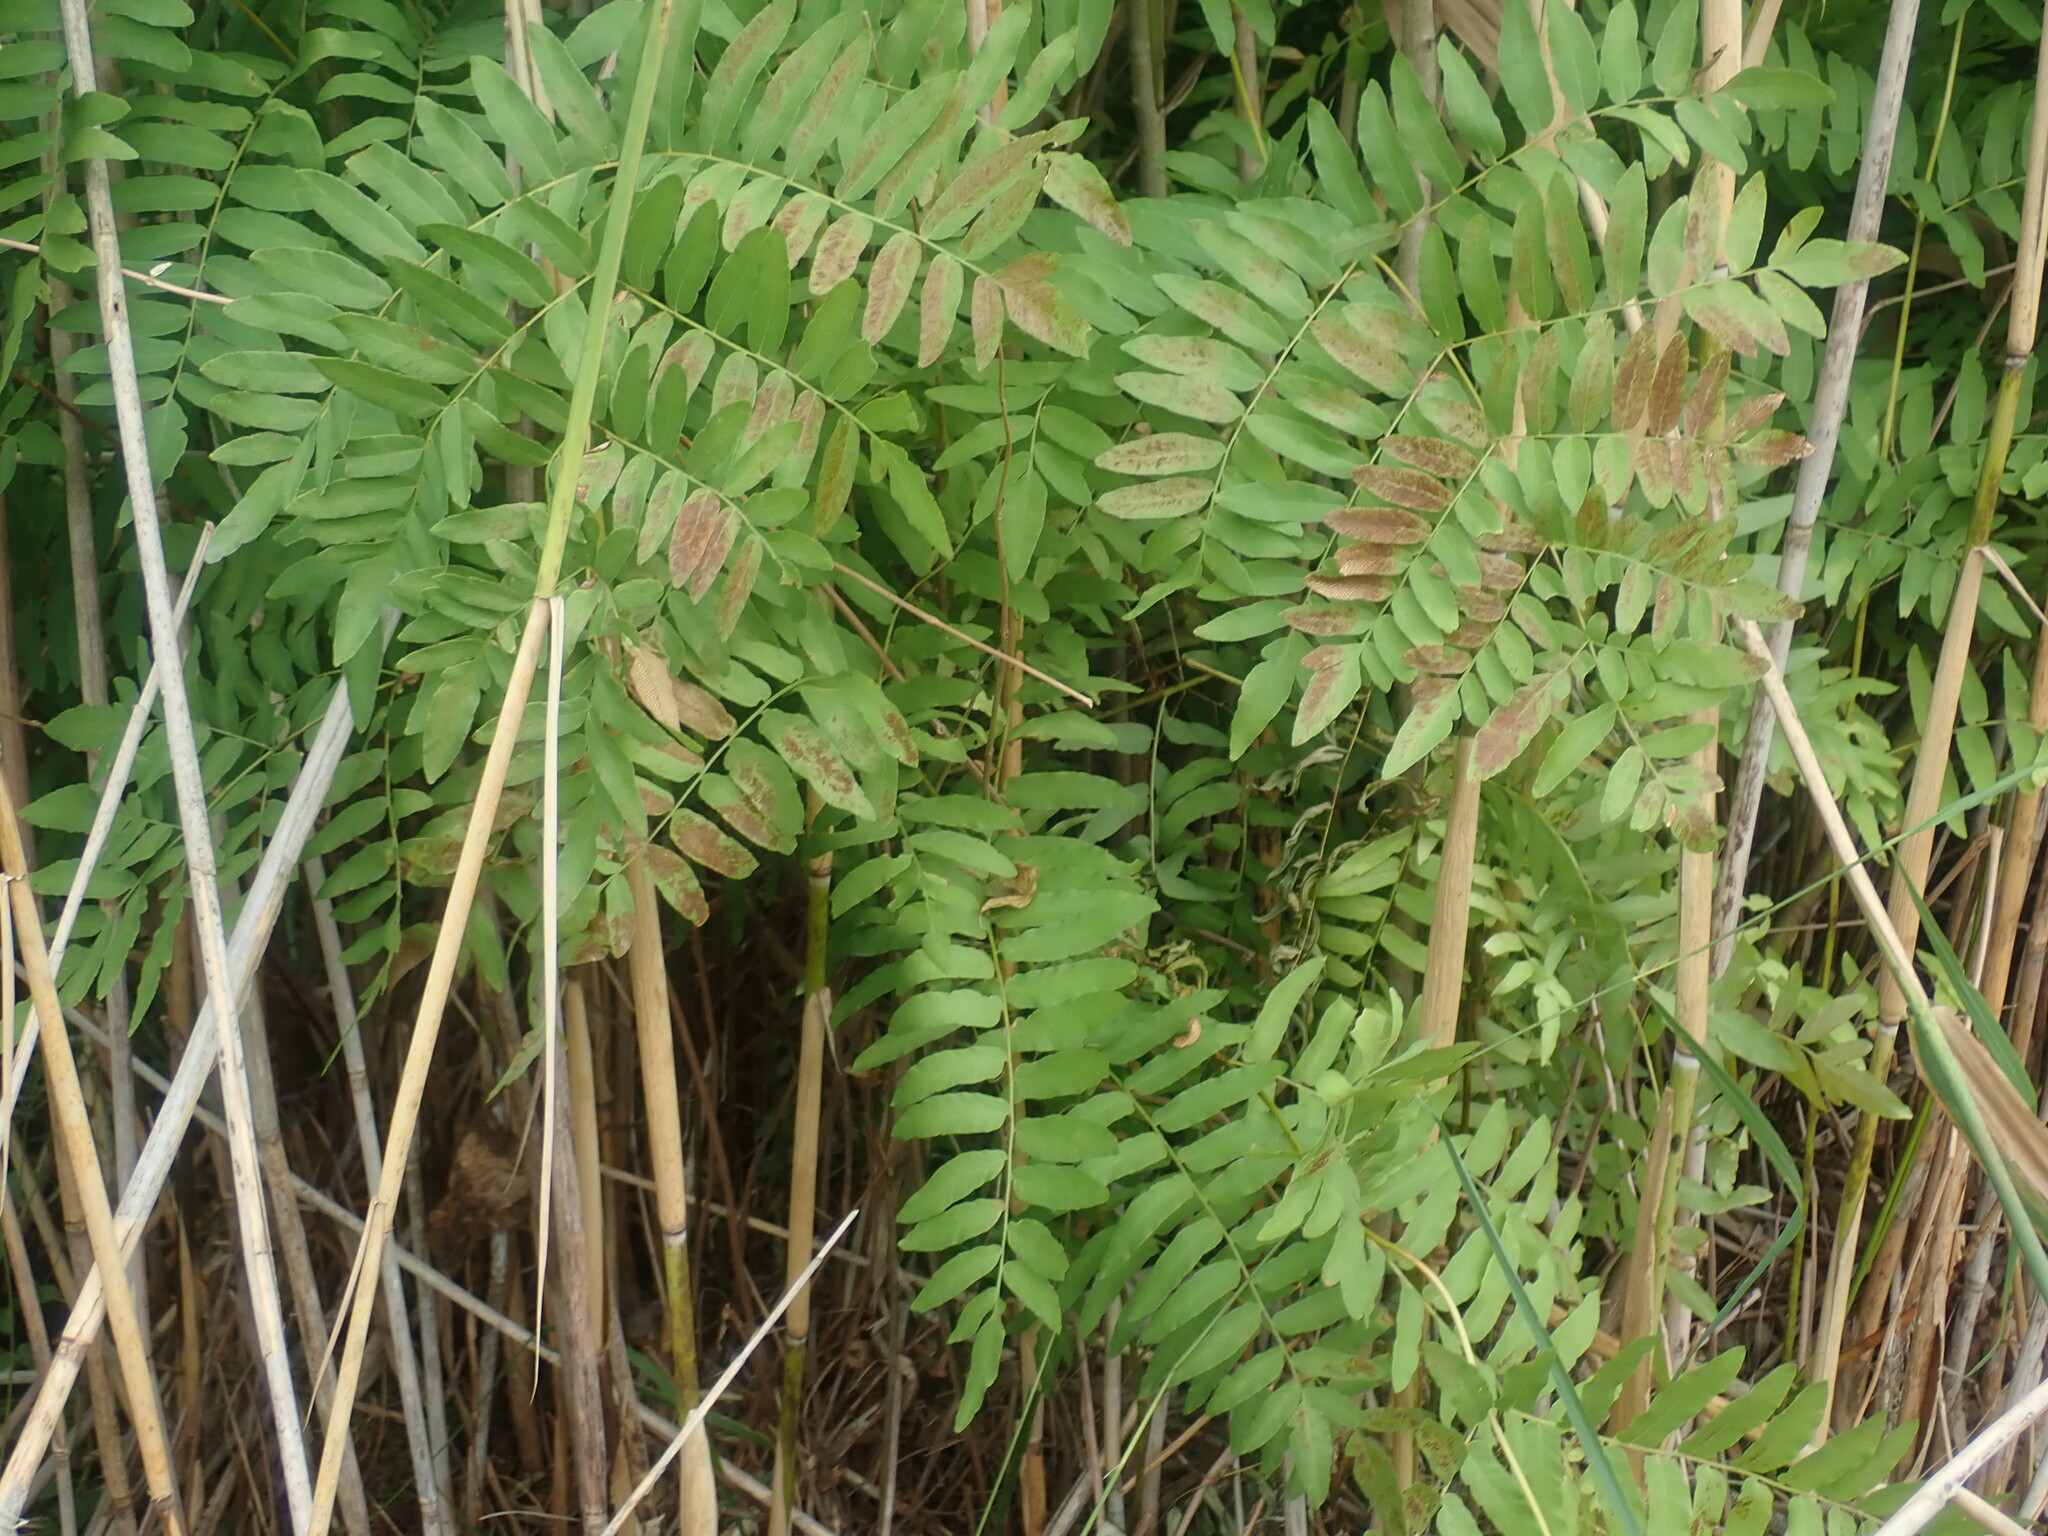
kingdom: Plantae
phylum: Tracheophyta
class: Polypodiopsida
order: Osmundales
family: Osmundaceae
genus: Osmunda
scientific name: Osmunda spectabilis
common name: American royal fern
